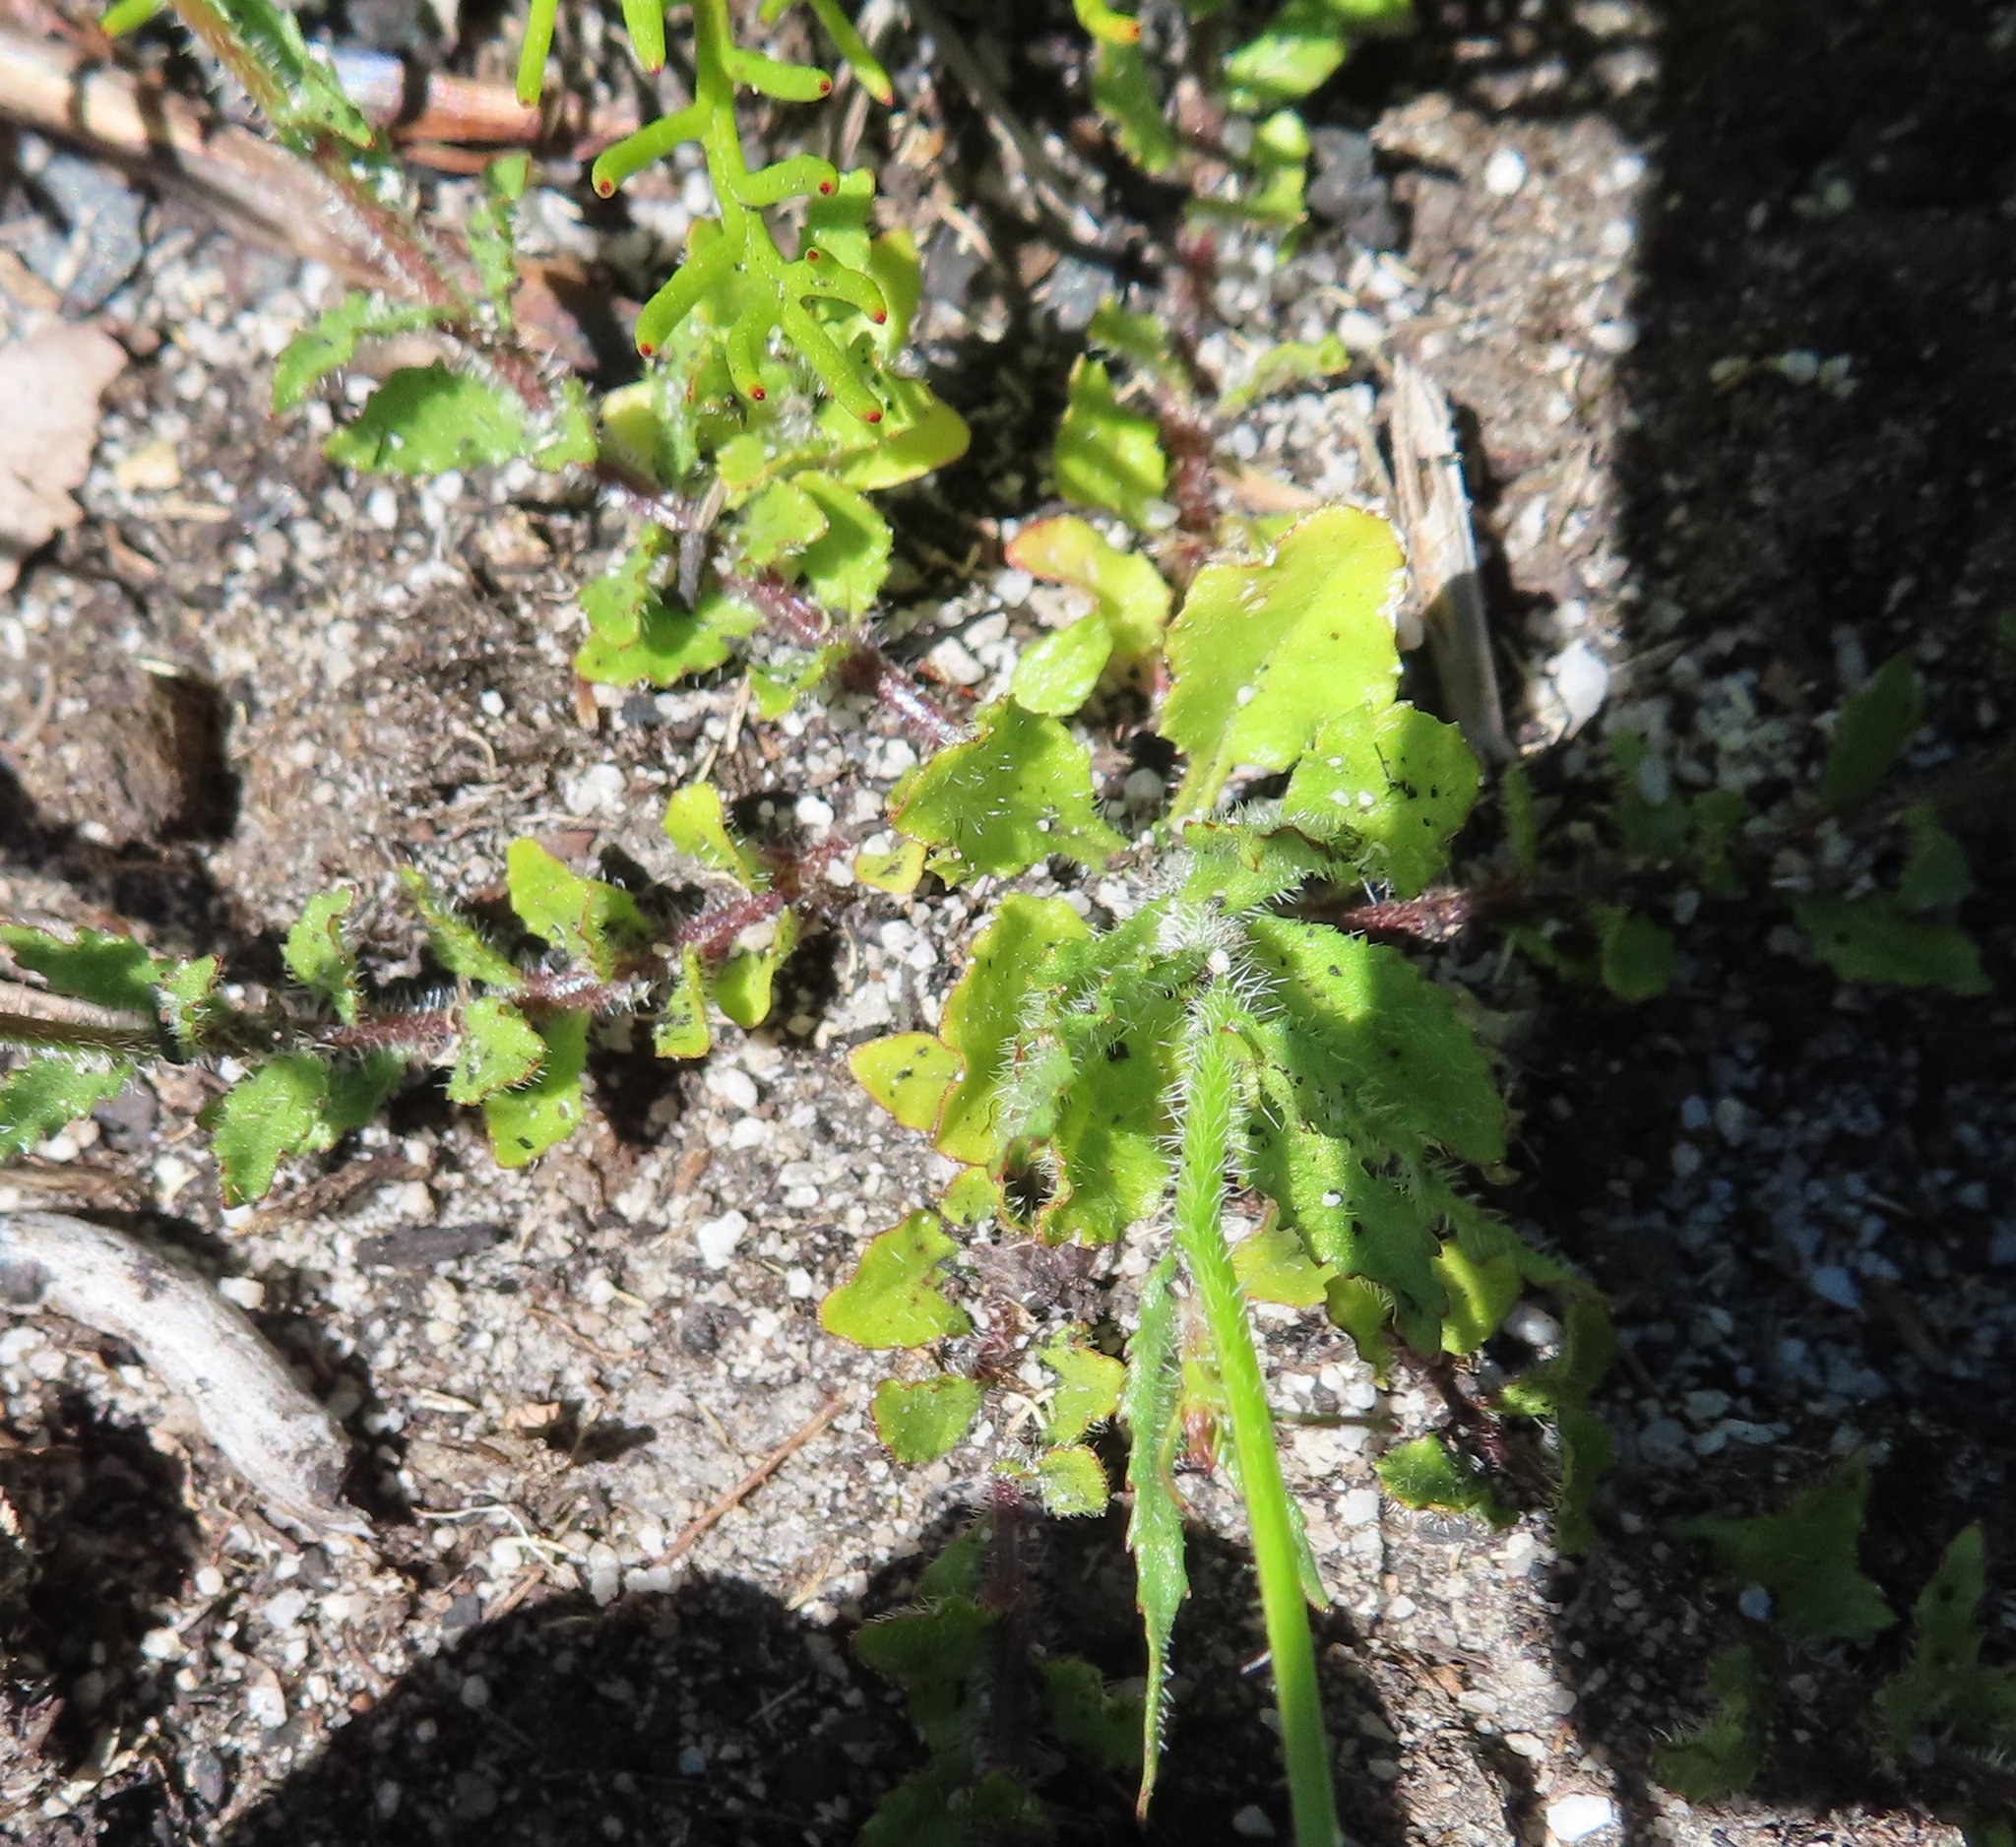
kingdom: Plantae
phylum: Tracheophyta
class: Magnoliopsida
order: Asterales
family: Campanulaceae
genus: Wahlenbergia
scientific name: Wahlenbergia cernua
